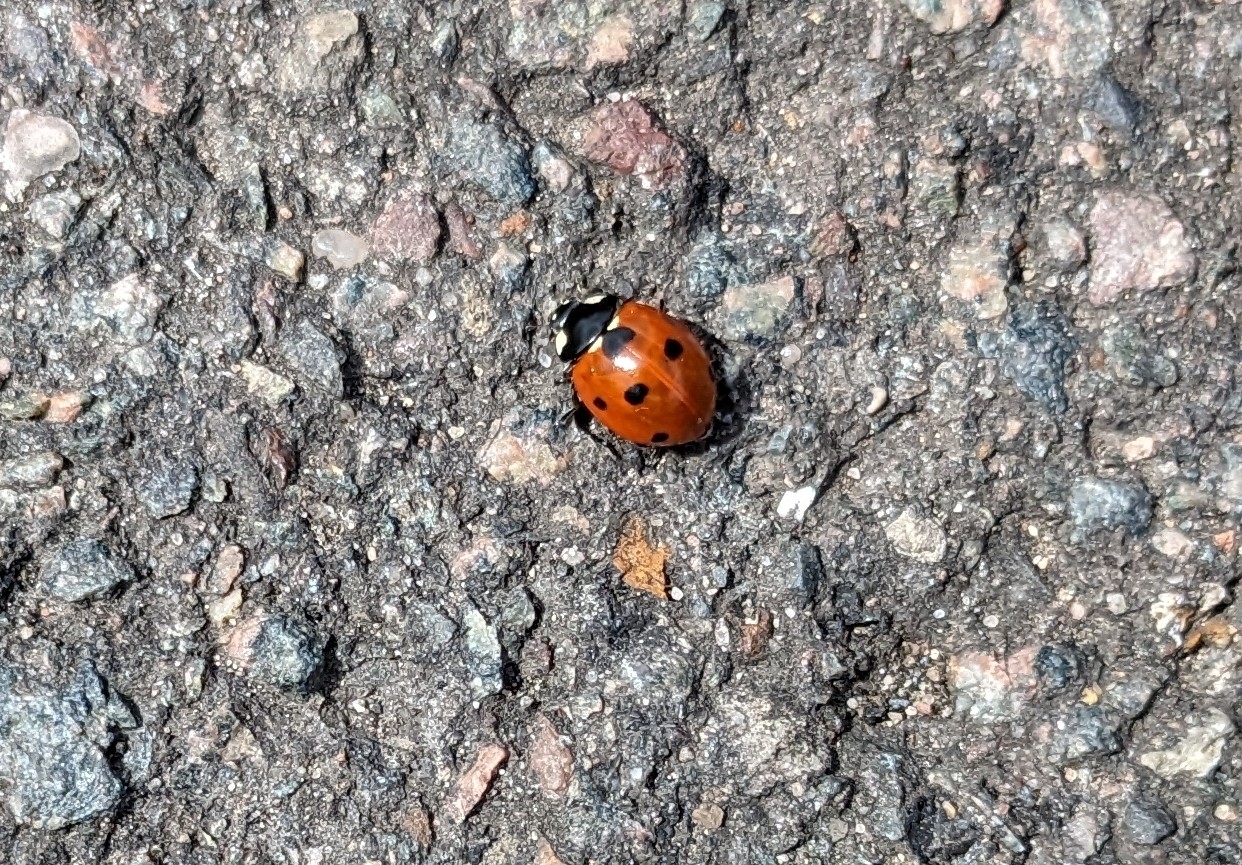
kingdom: Animalia
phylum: Arthropoda
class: Insecta
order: Coleoptera
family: Coccinellidae
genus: Coccinella
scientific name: Coccinella septempunctata
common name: Sevenspotted lady beetle
